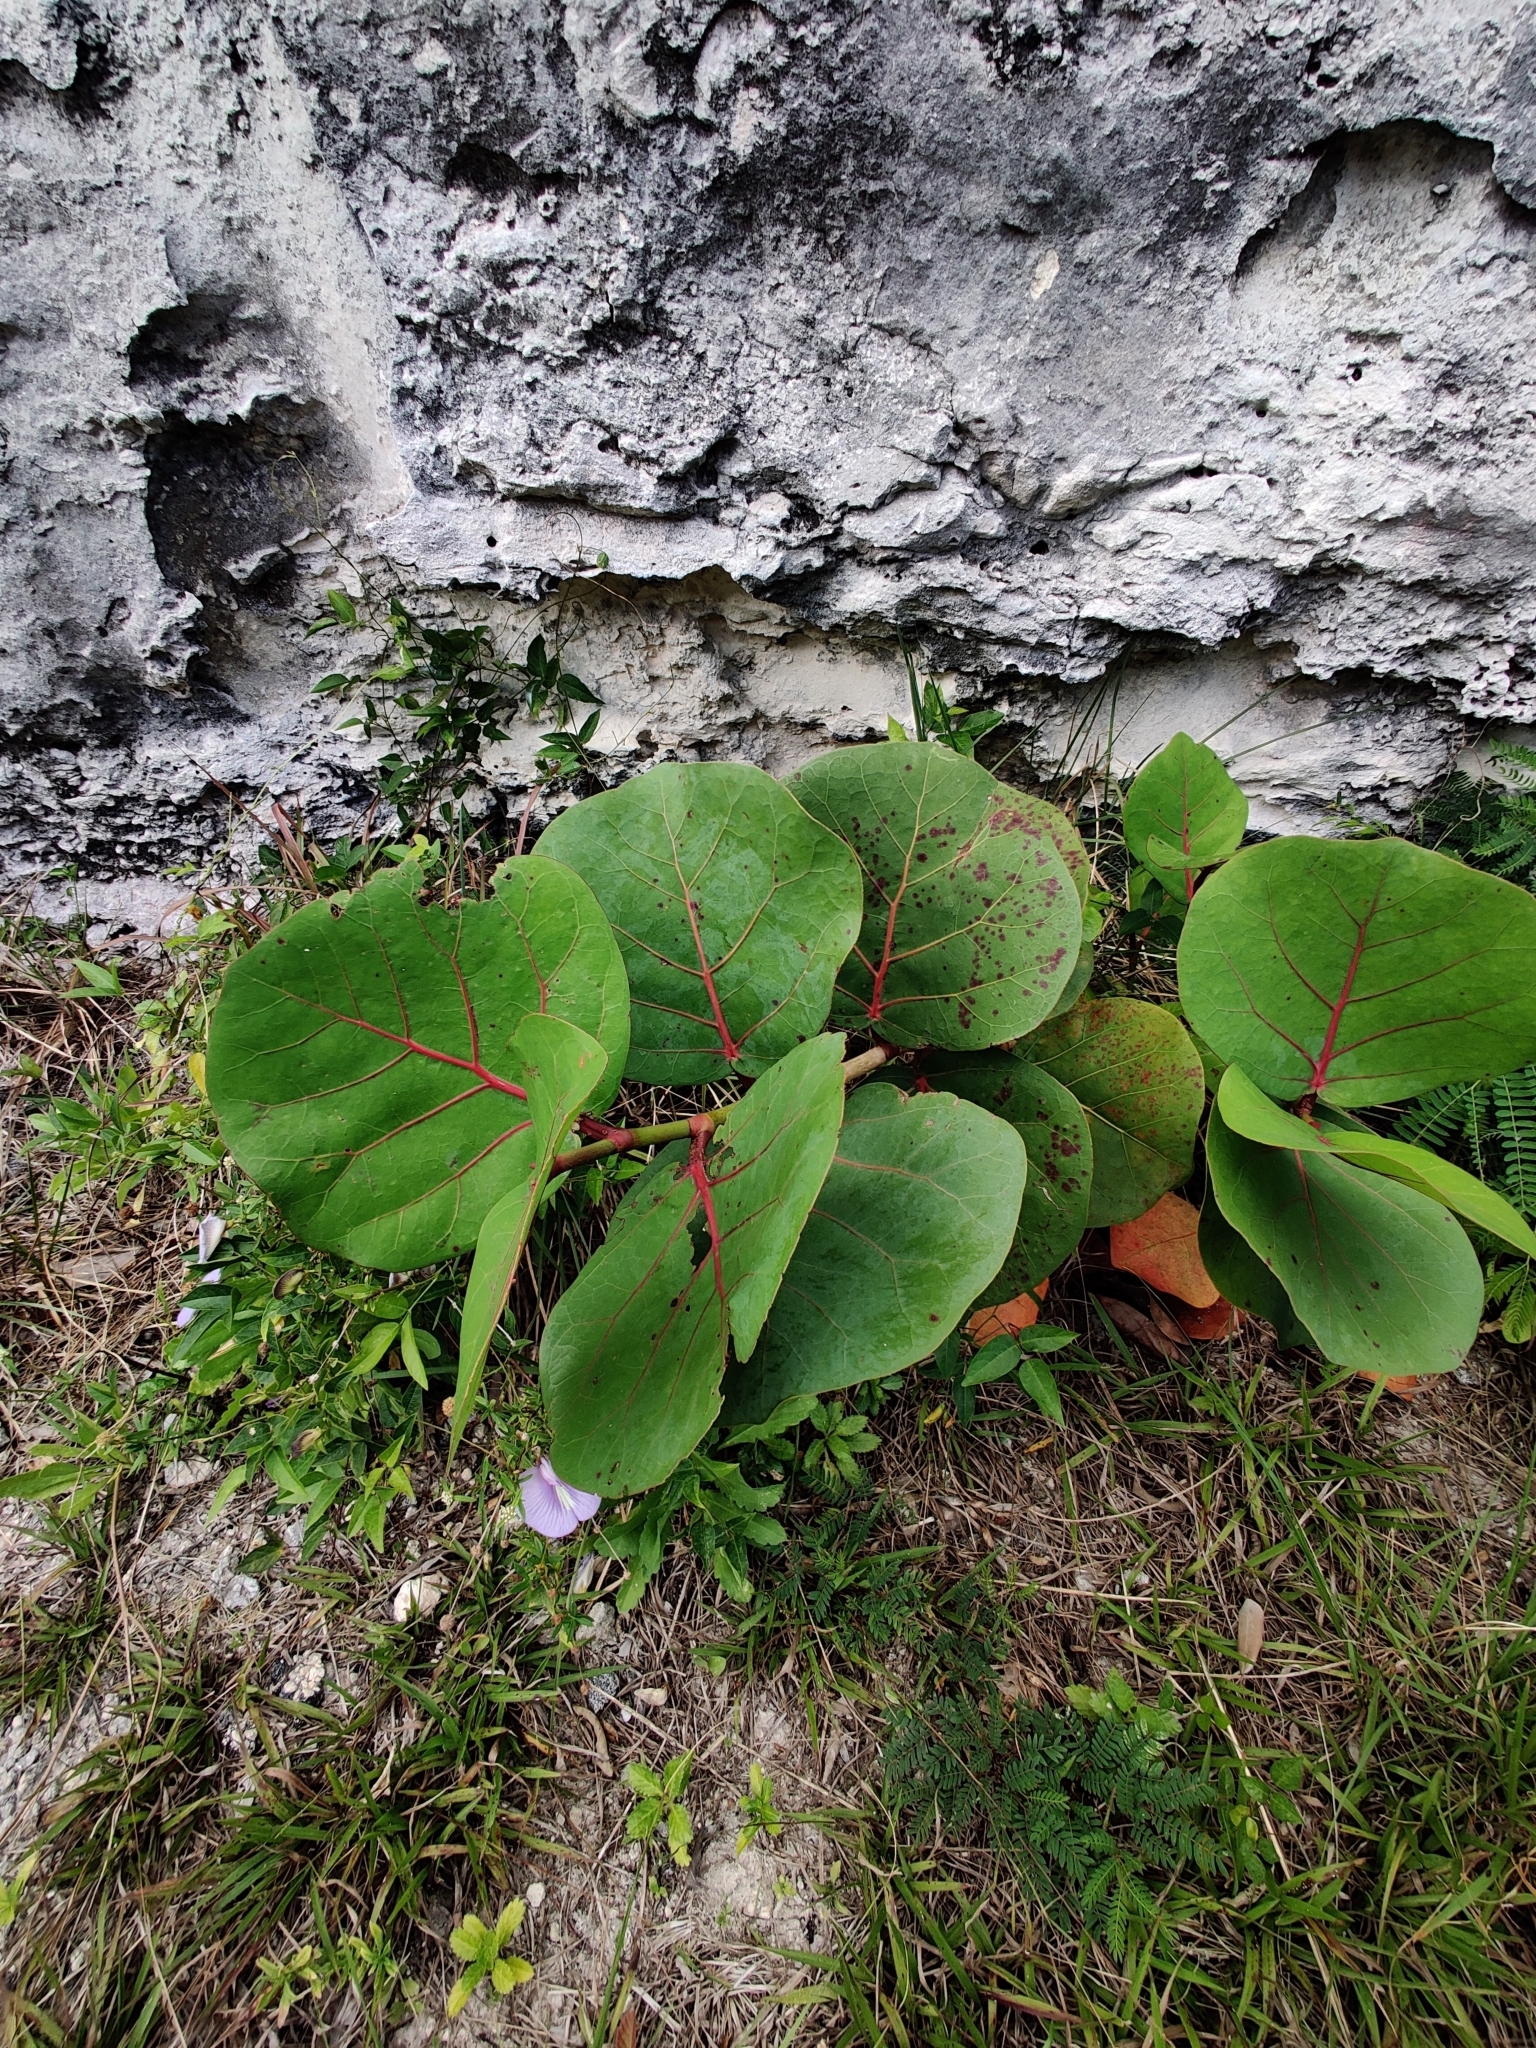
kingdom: Plantae
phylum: Tracheophyta
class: Magnoliopsida
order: Caryophyllales
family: Polygonaceae
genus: Coccoloba
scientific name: Coccoloba uvifera
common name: Seagrape
